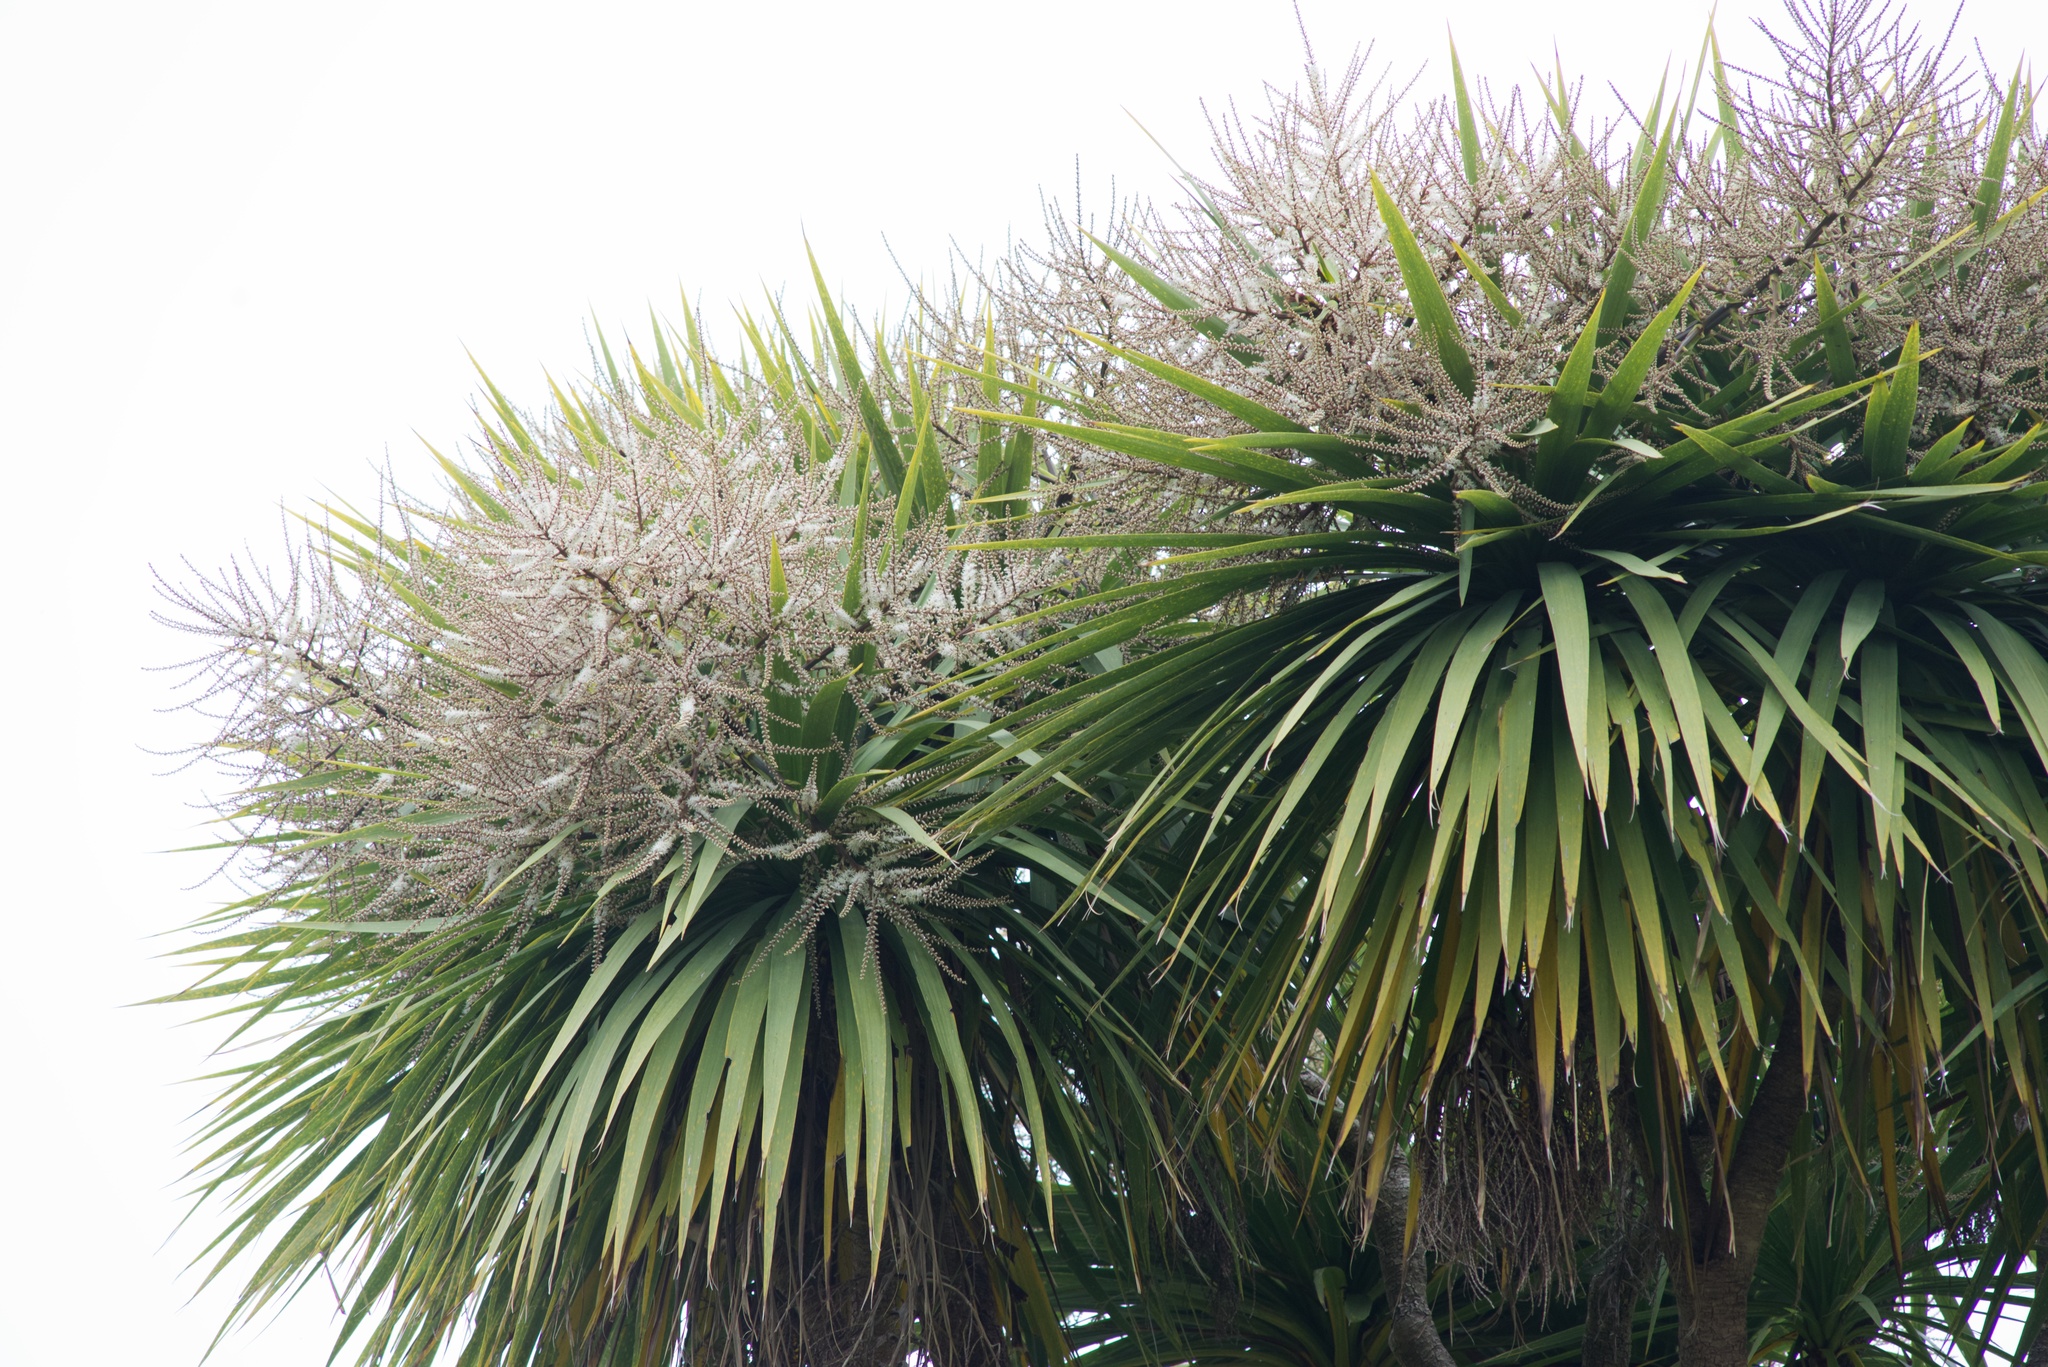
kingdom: Plantae
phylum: Tracheophyta
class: Liliopsida
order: Asparagales
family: Asparagaceae
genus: Cordyline
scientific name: Cordyline australis
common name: Cabbage-palm
